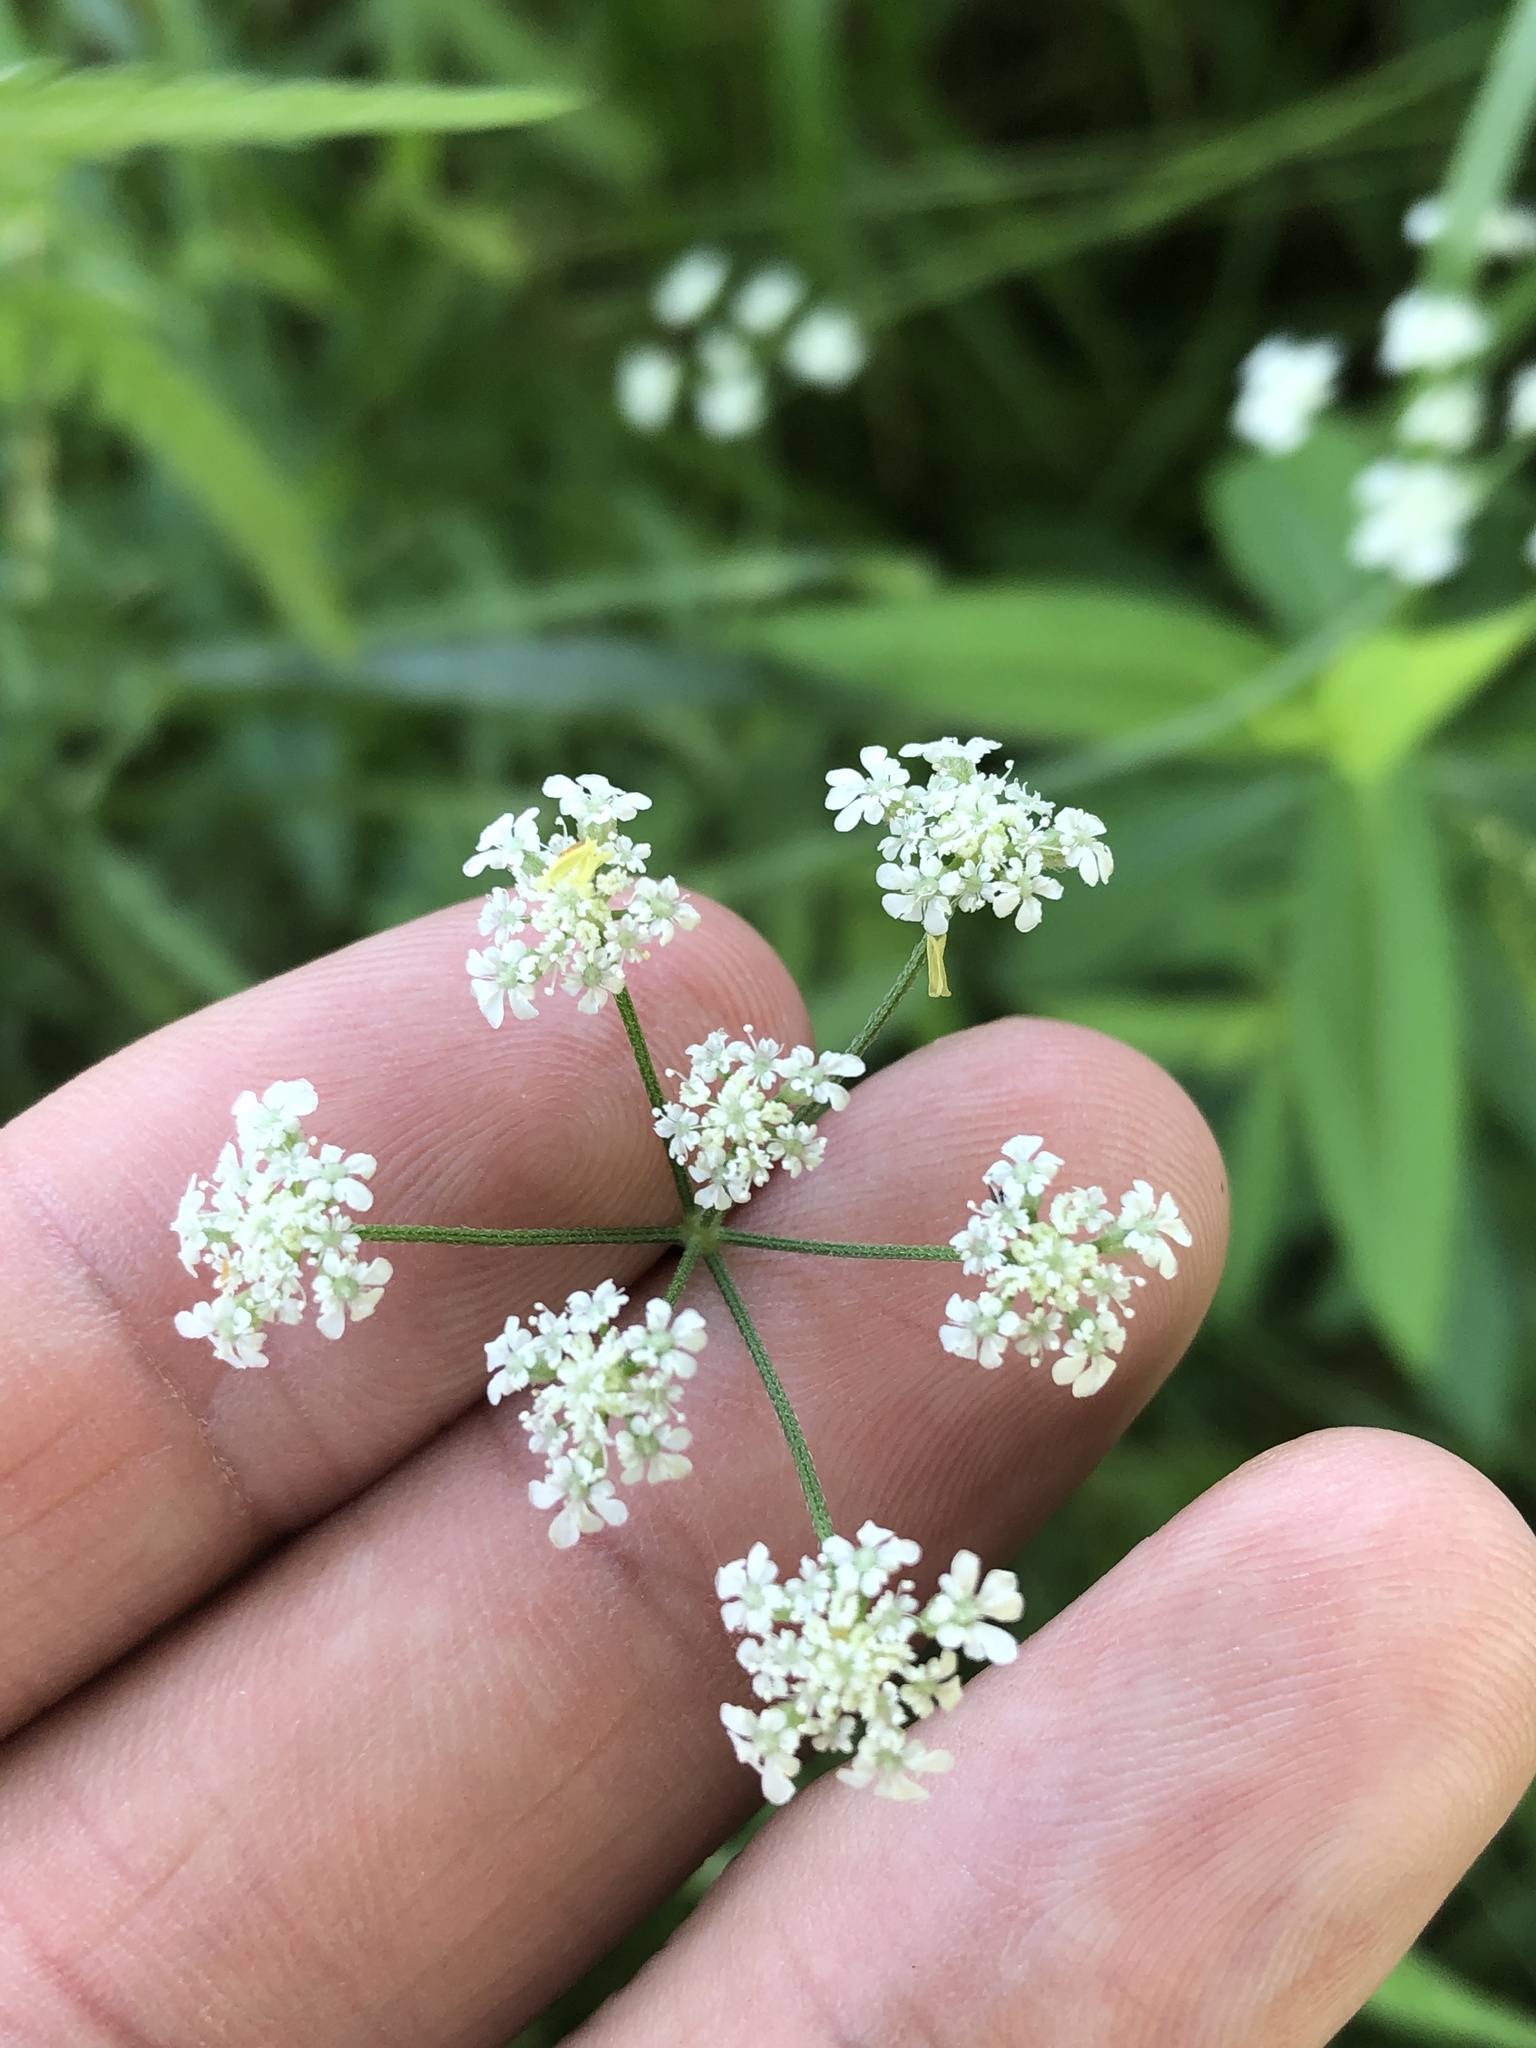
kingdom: Plantae
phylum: Tracheophyta
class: Magnoliopsida
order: Apiales
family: Apiaceae
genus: Torilis
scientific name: Torilis arvensis
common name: Spreading hedge-parsley
